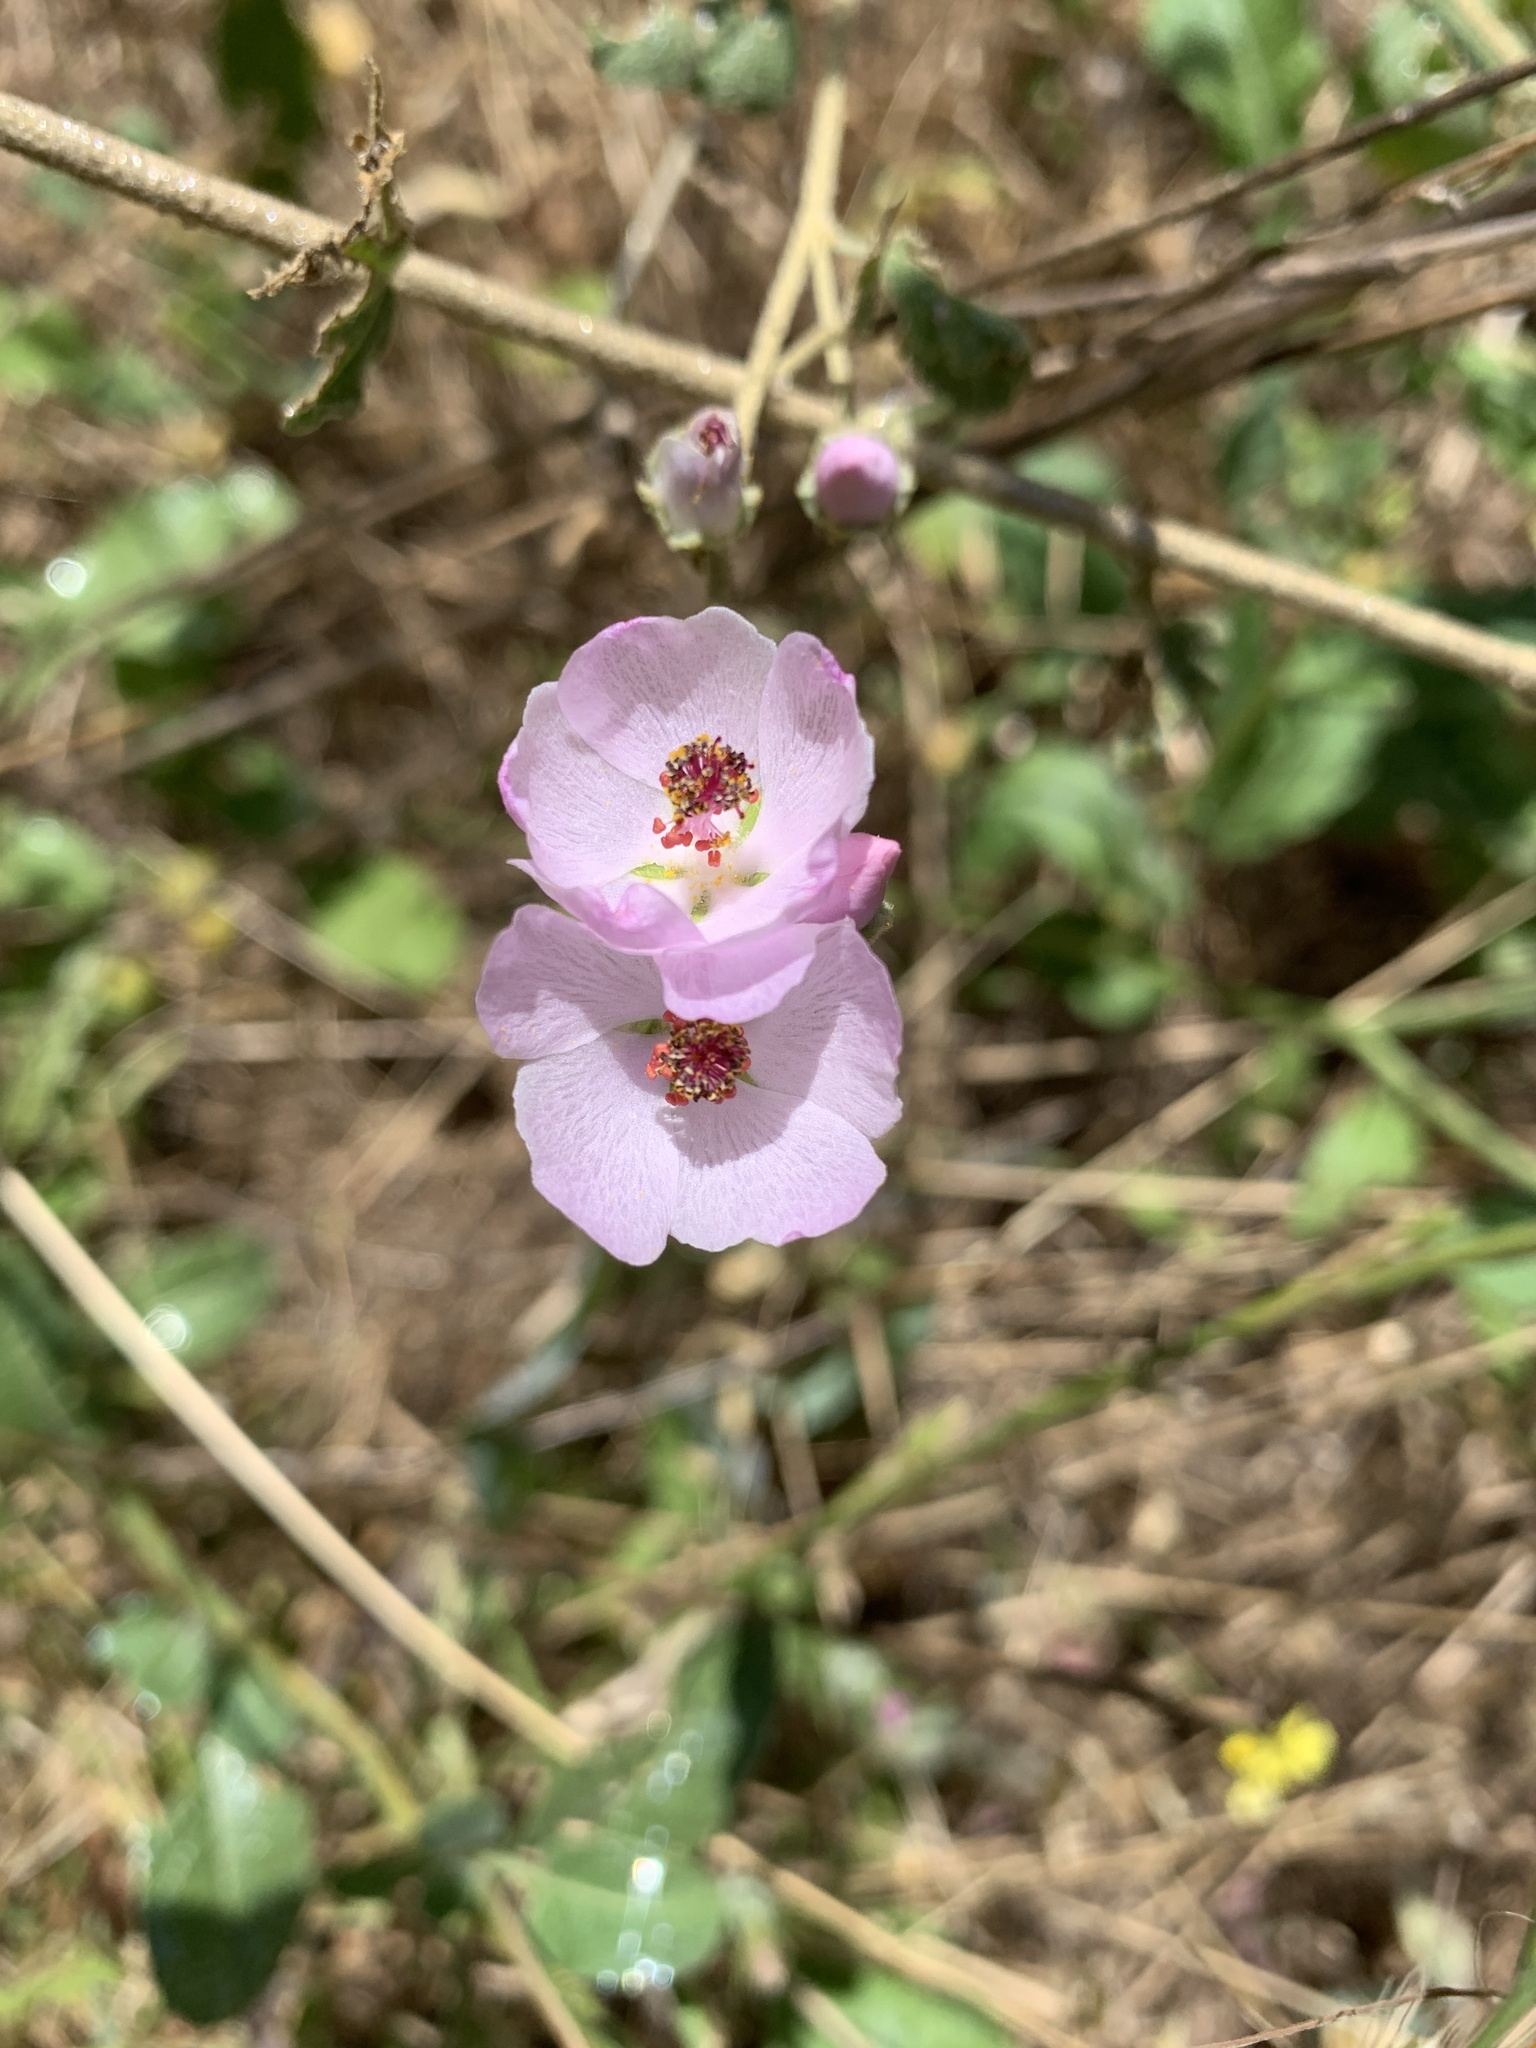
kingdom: Plantae
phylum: Tracheophyta
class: Magnoliopsida
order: Malvales
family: Malvaceae
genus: Malacothamnus
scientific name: Malacothamnus fasciculatus
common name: Sant cruz island bush-mallow
